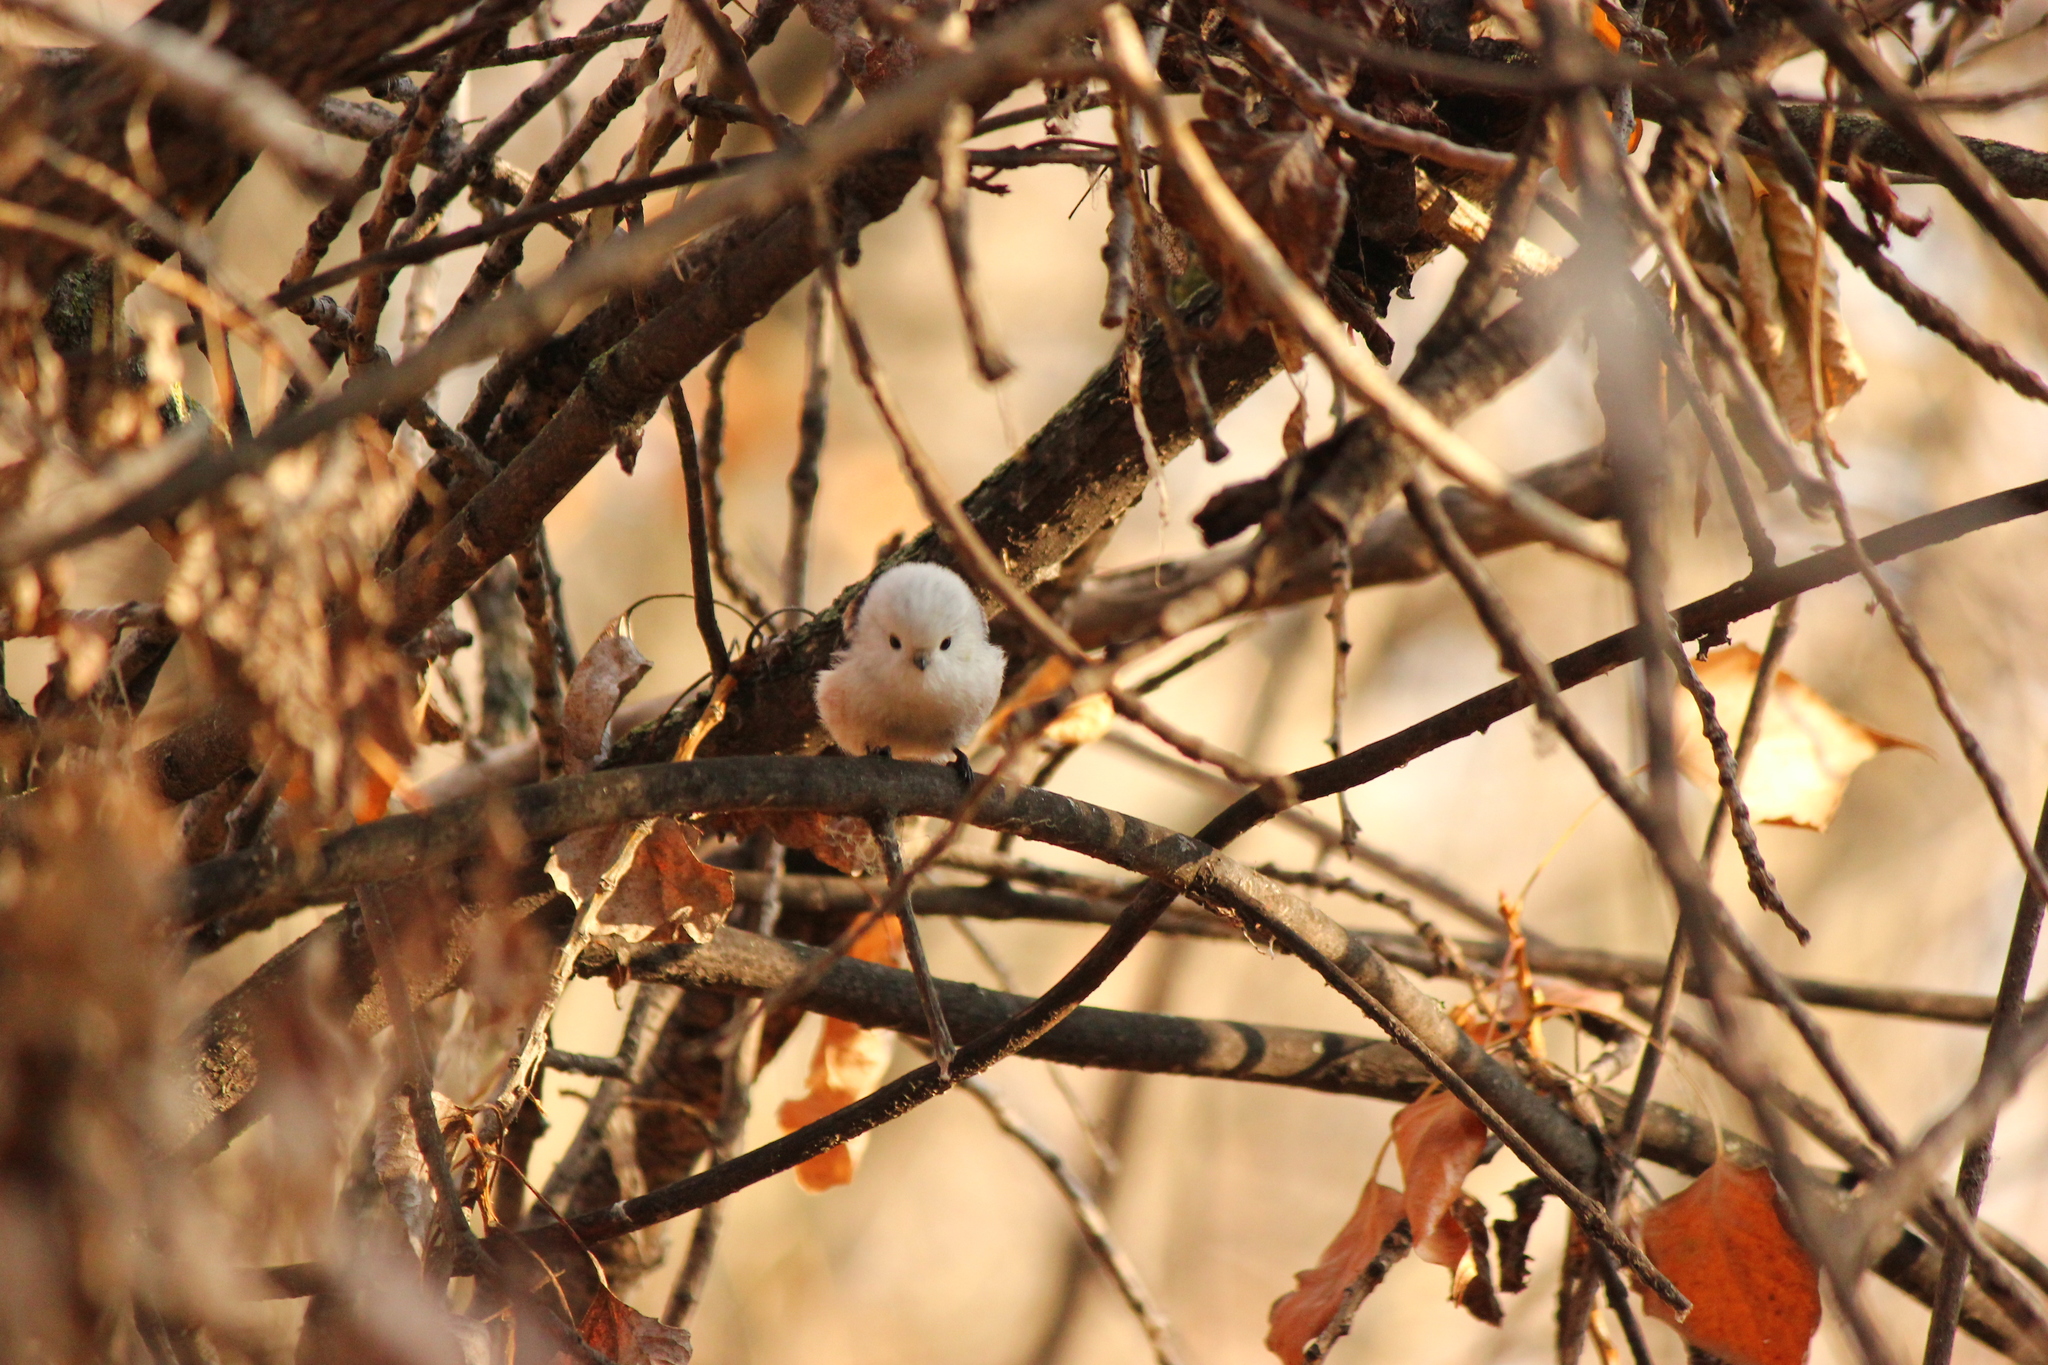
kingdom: Animalia
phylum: Chordata
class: Aves
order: Passeriformes
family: Aegithalidae
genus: Aegithalos
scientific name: Aegithalos caudatus
